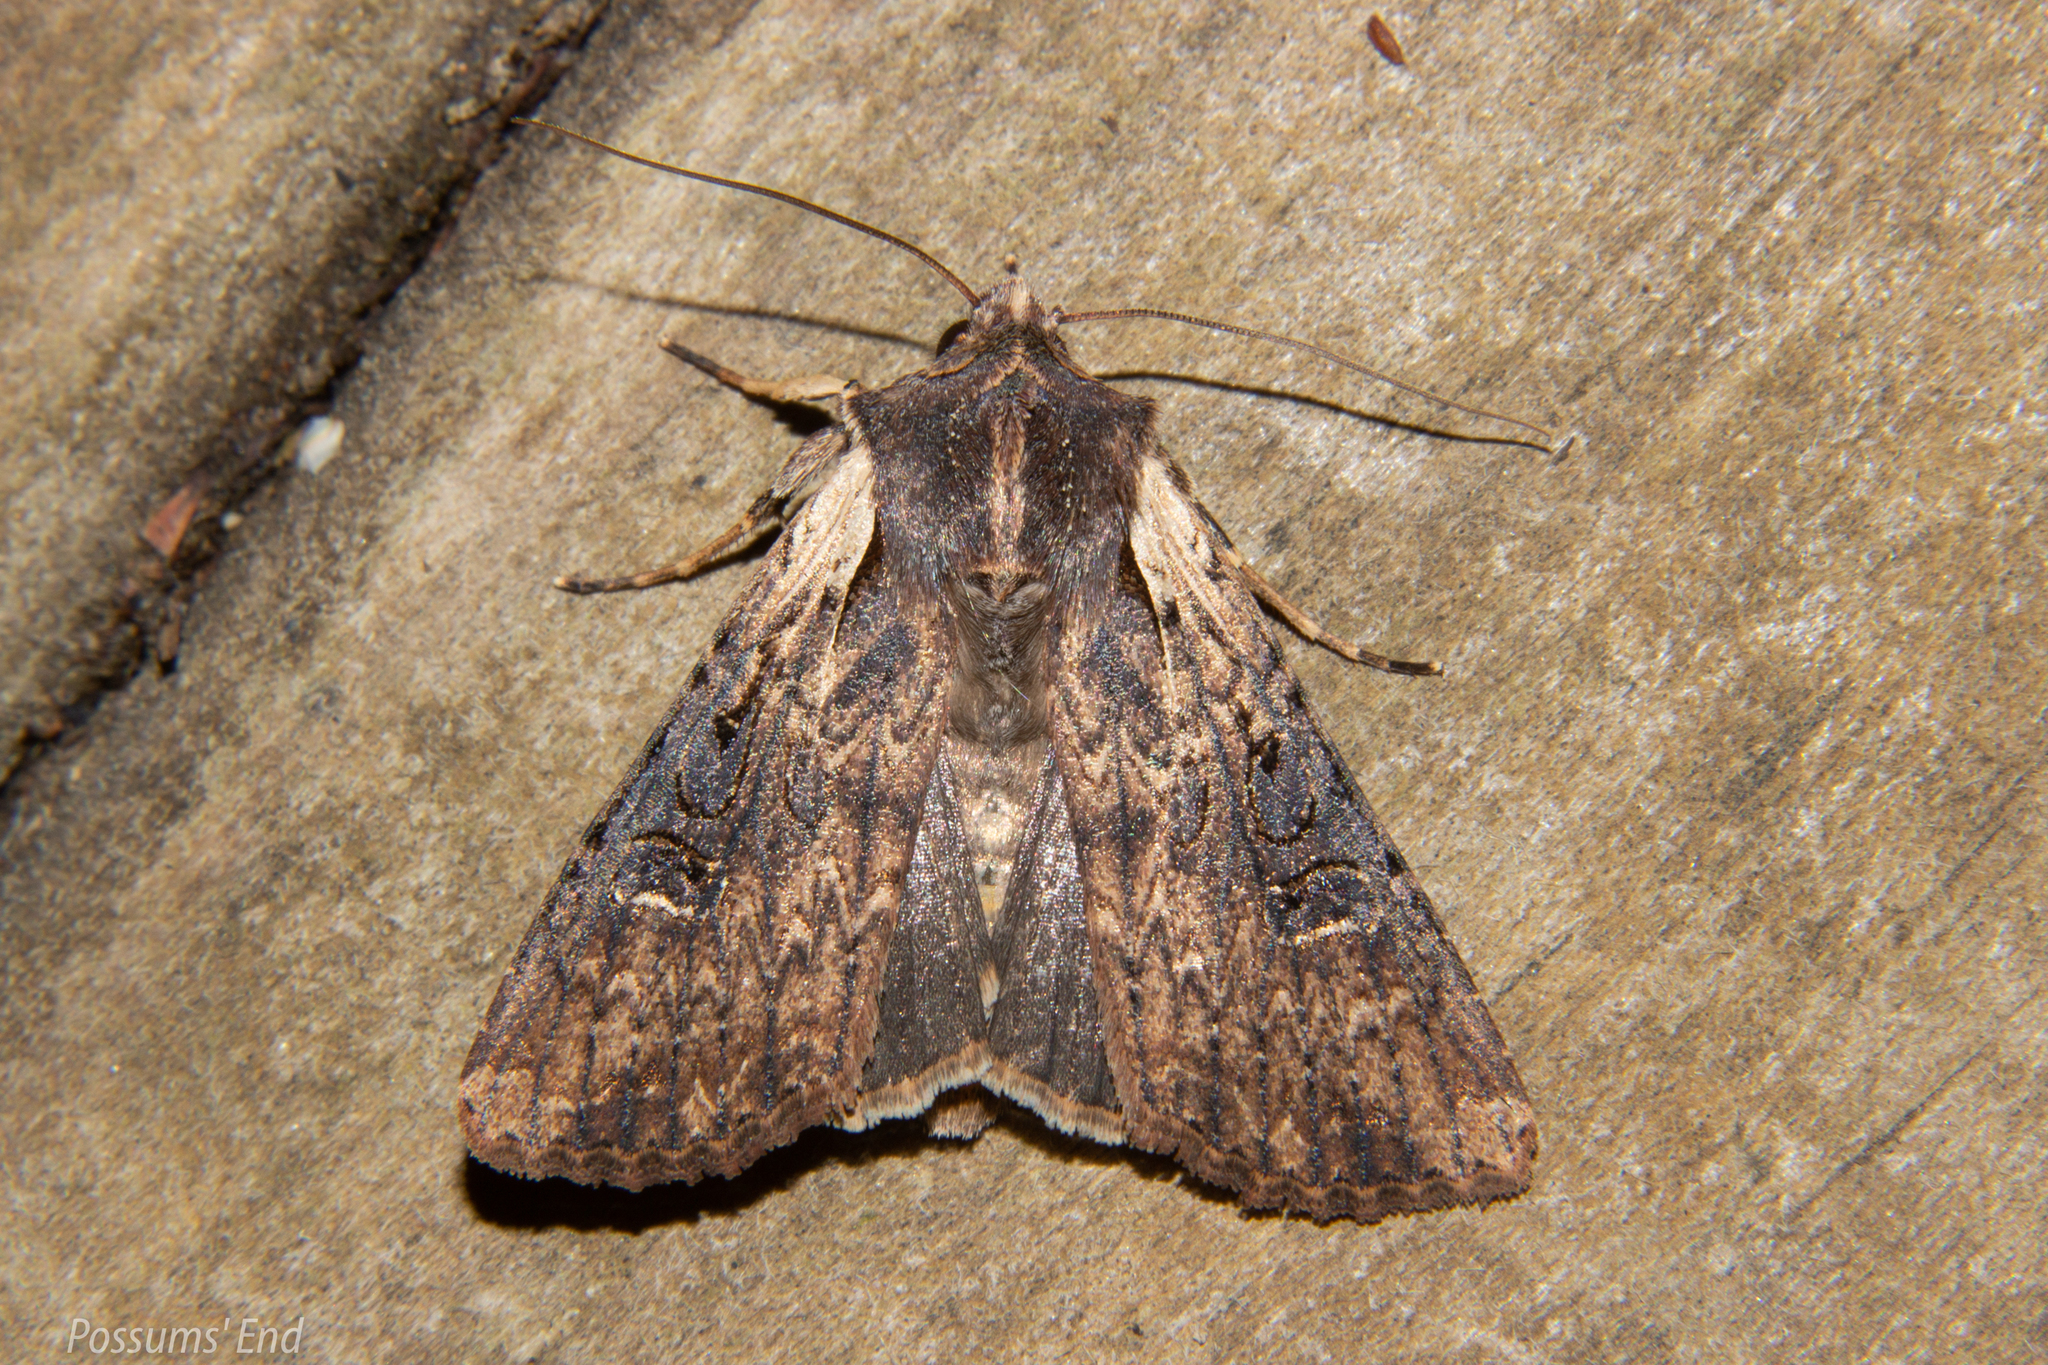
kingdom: Animalia
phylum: Arthropoda
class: Insecta
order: Lepidoptera
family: Noctuidae
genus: Ichneutica
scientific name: Ichneutica omoplaca
